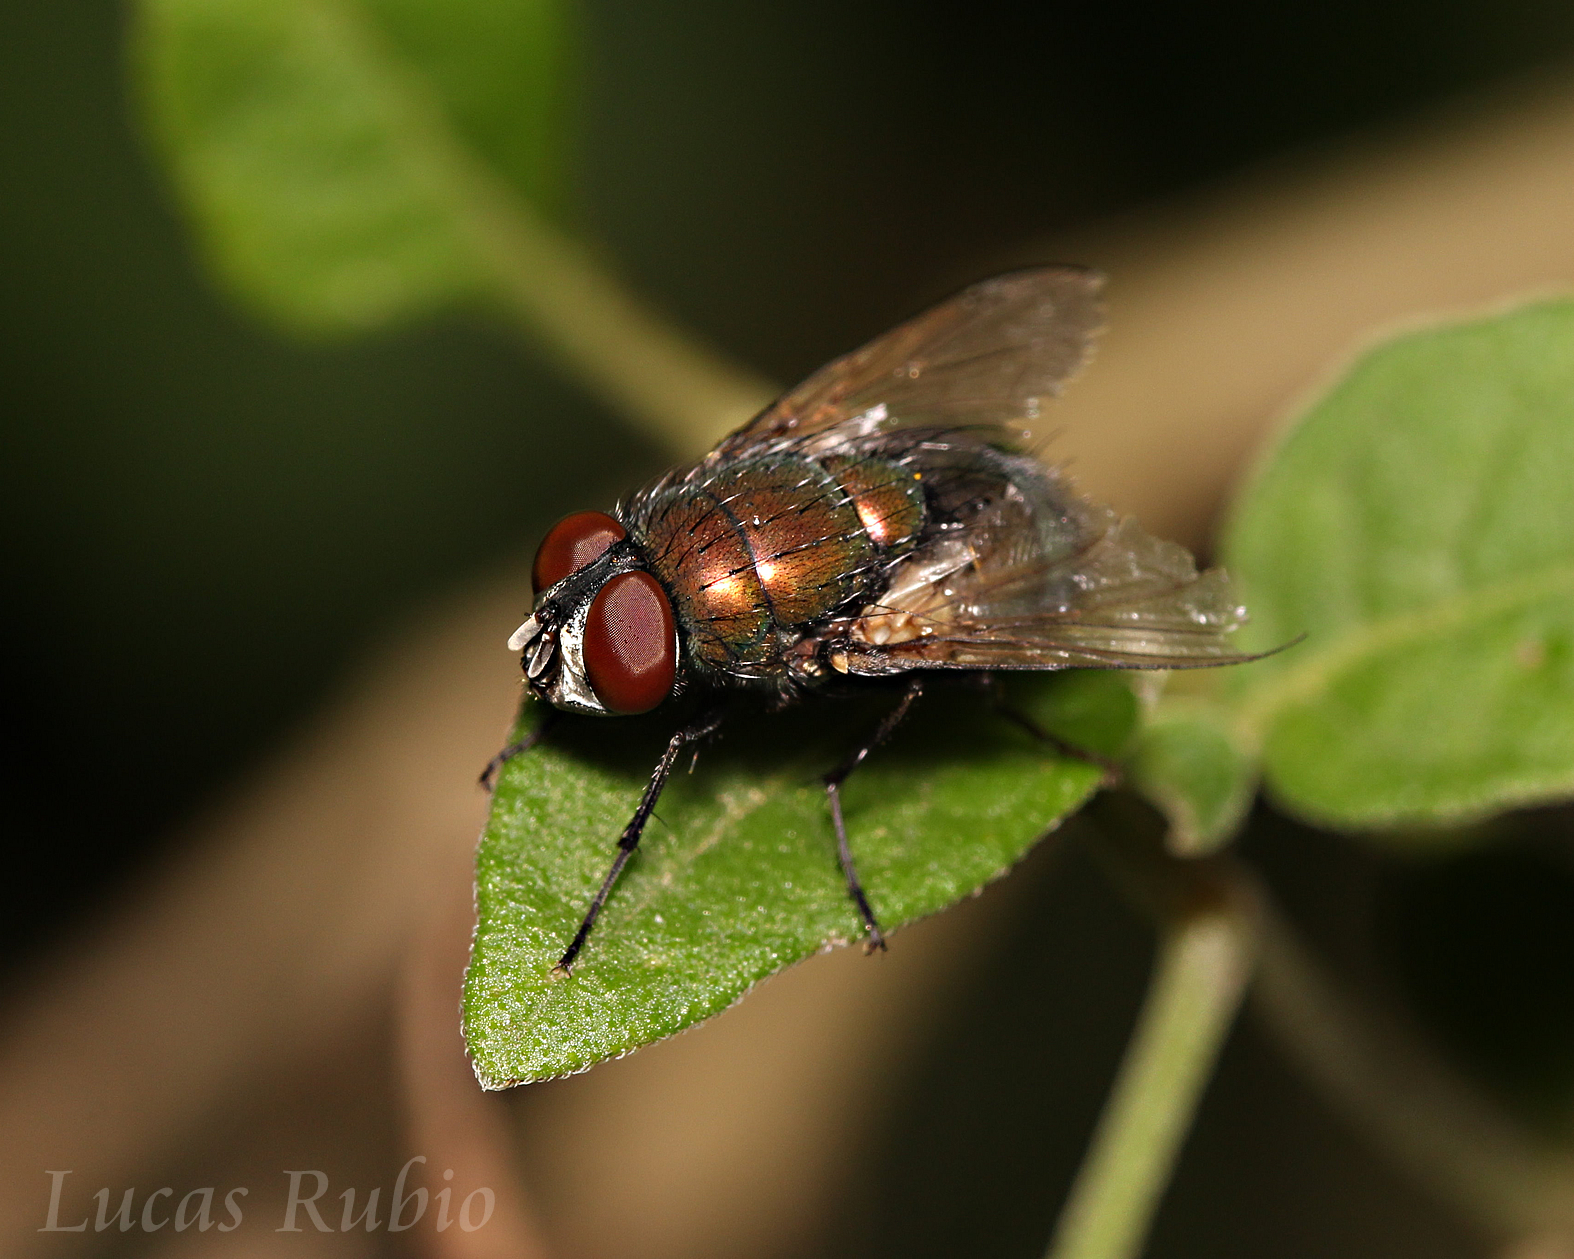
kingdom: Animalia
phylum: Arthropoda
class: Insecta
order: Diptera
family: Calliphoridae
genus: Lucilia
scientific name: Lucilia sericata
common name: Blow fly
